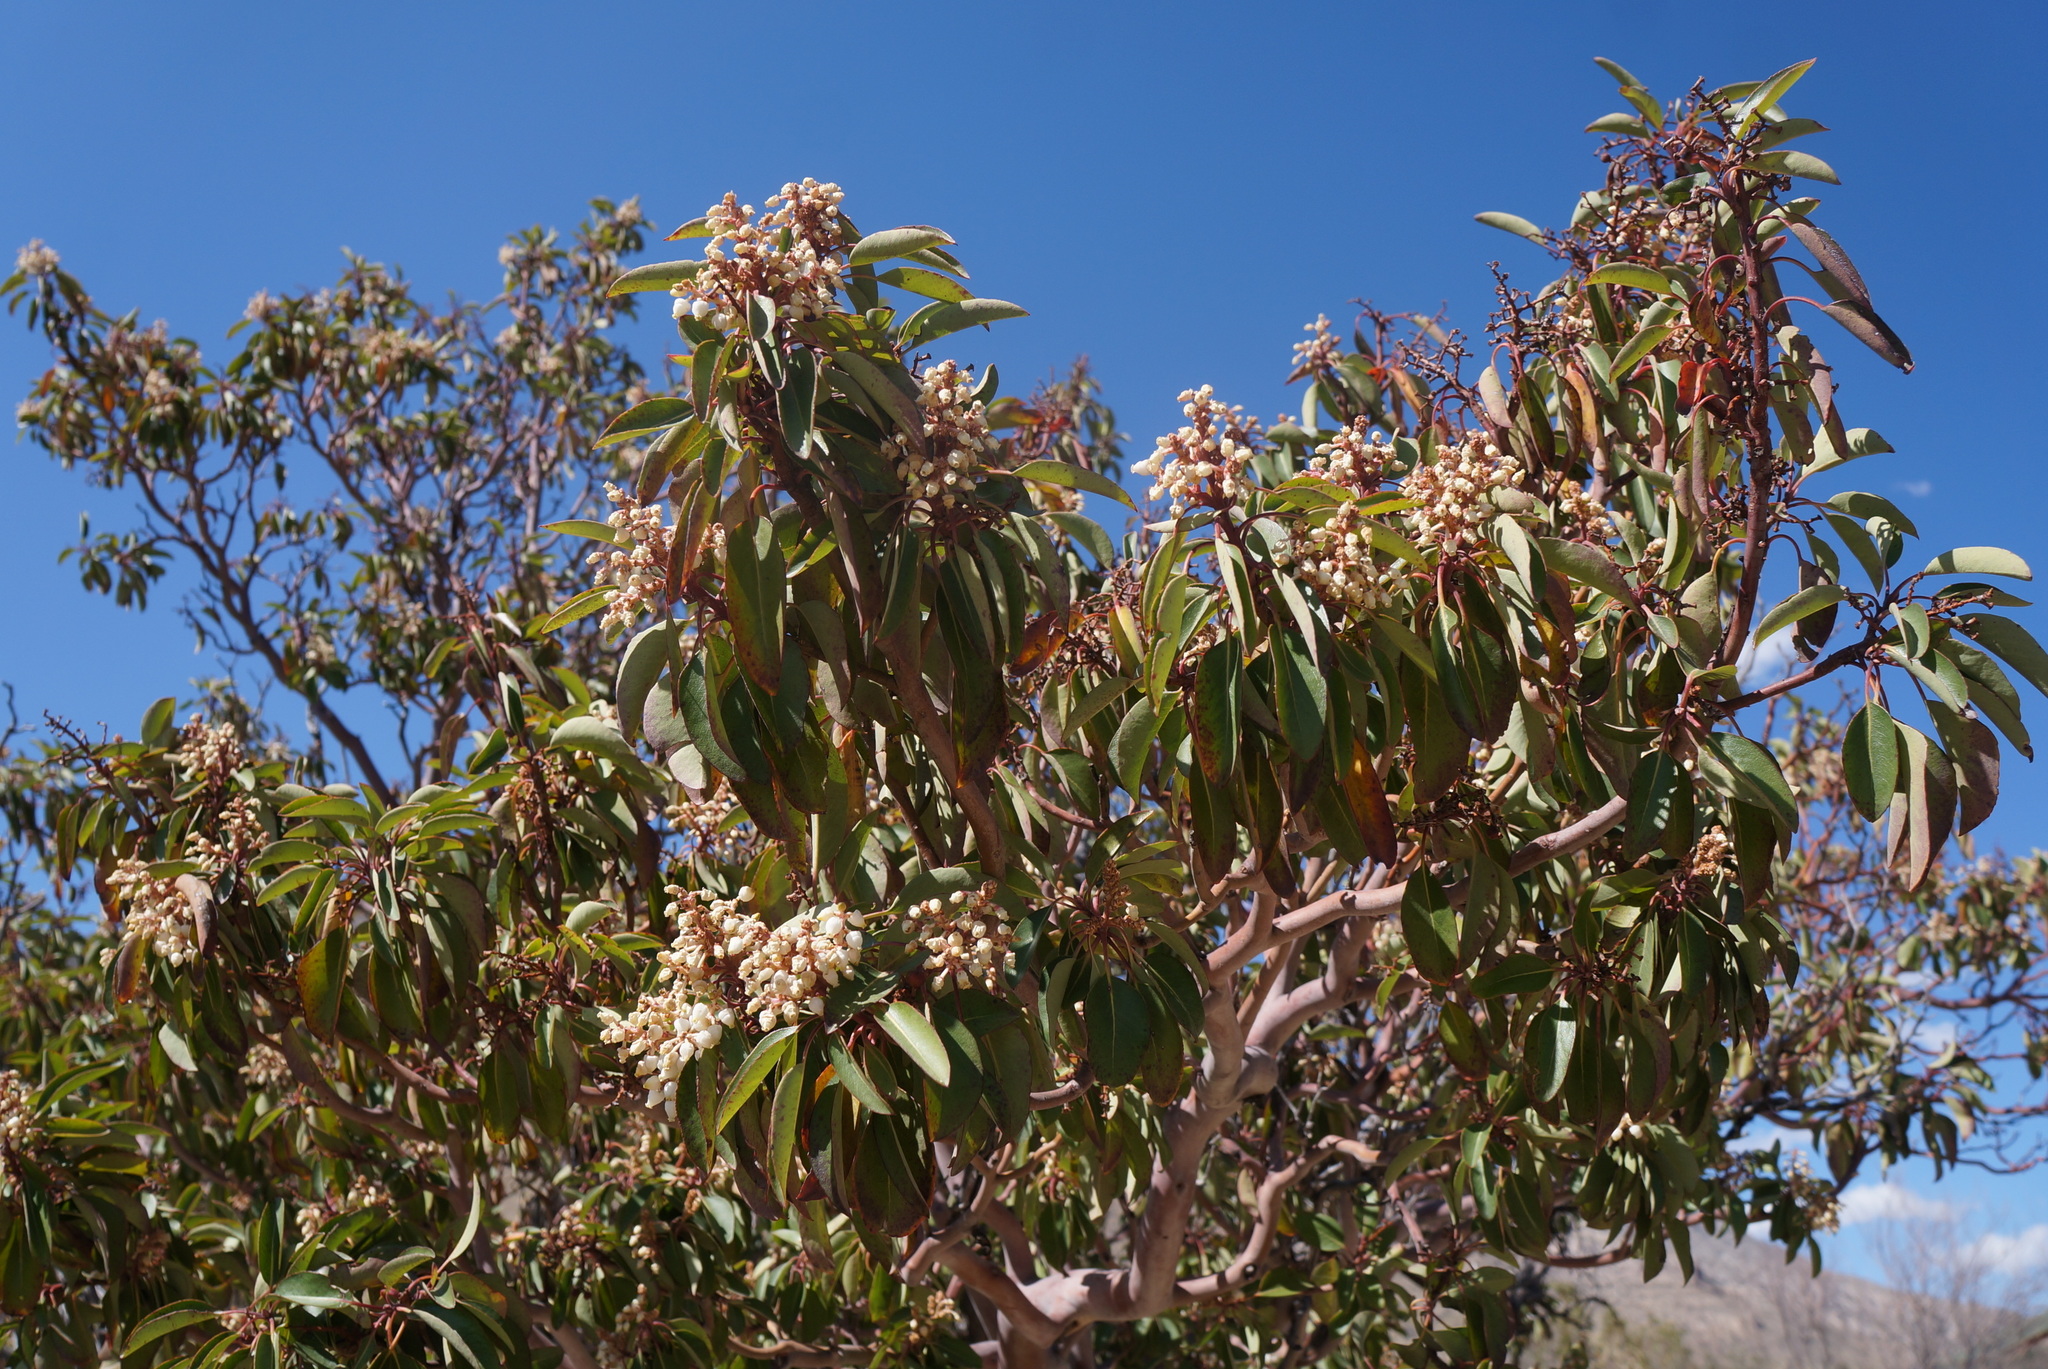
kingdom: Plantae
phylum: Tracheophyta
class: Magnoliopsida
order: Ericales
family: Ericaceae
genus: Arbutus
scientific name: Arbutus xalapensis
